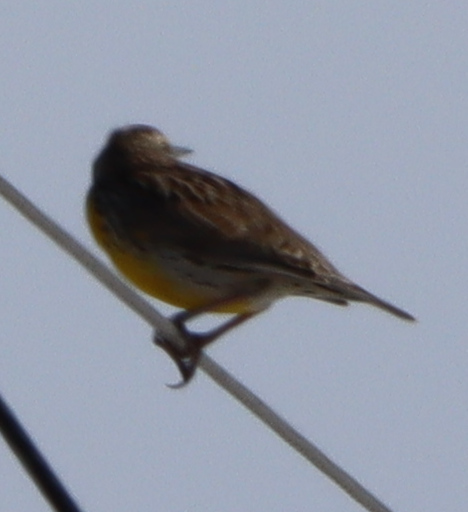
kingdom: Animalia
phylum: Chordata
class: Aves
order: Passeriformes
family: Icteridae
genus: Sturnella
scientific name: Sturnella neglecta
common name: Western meadowlark
